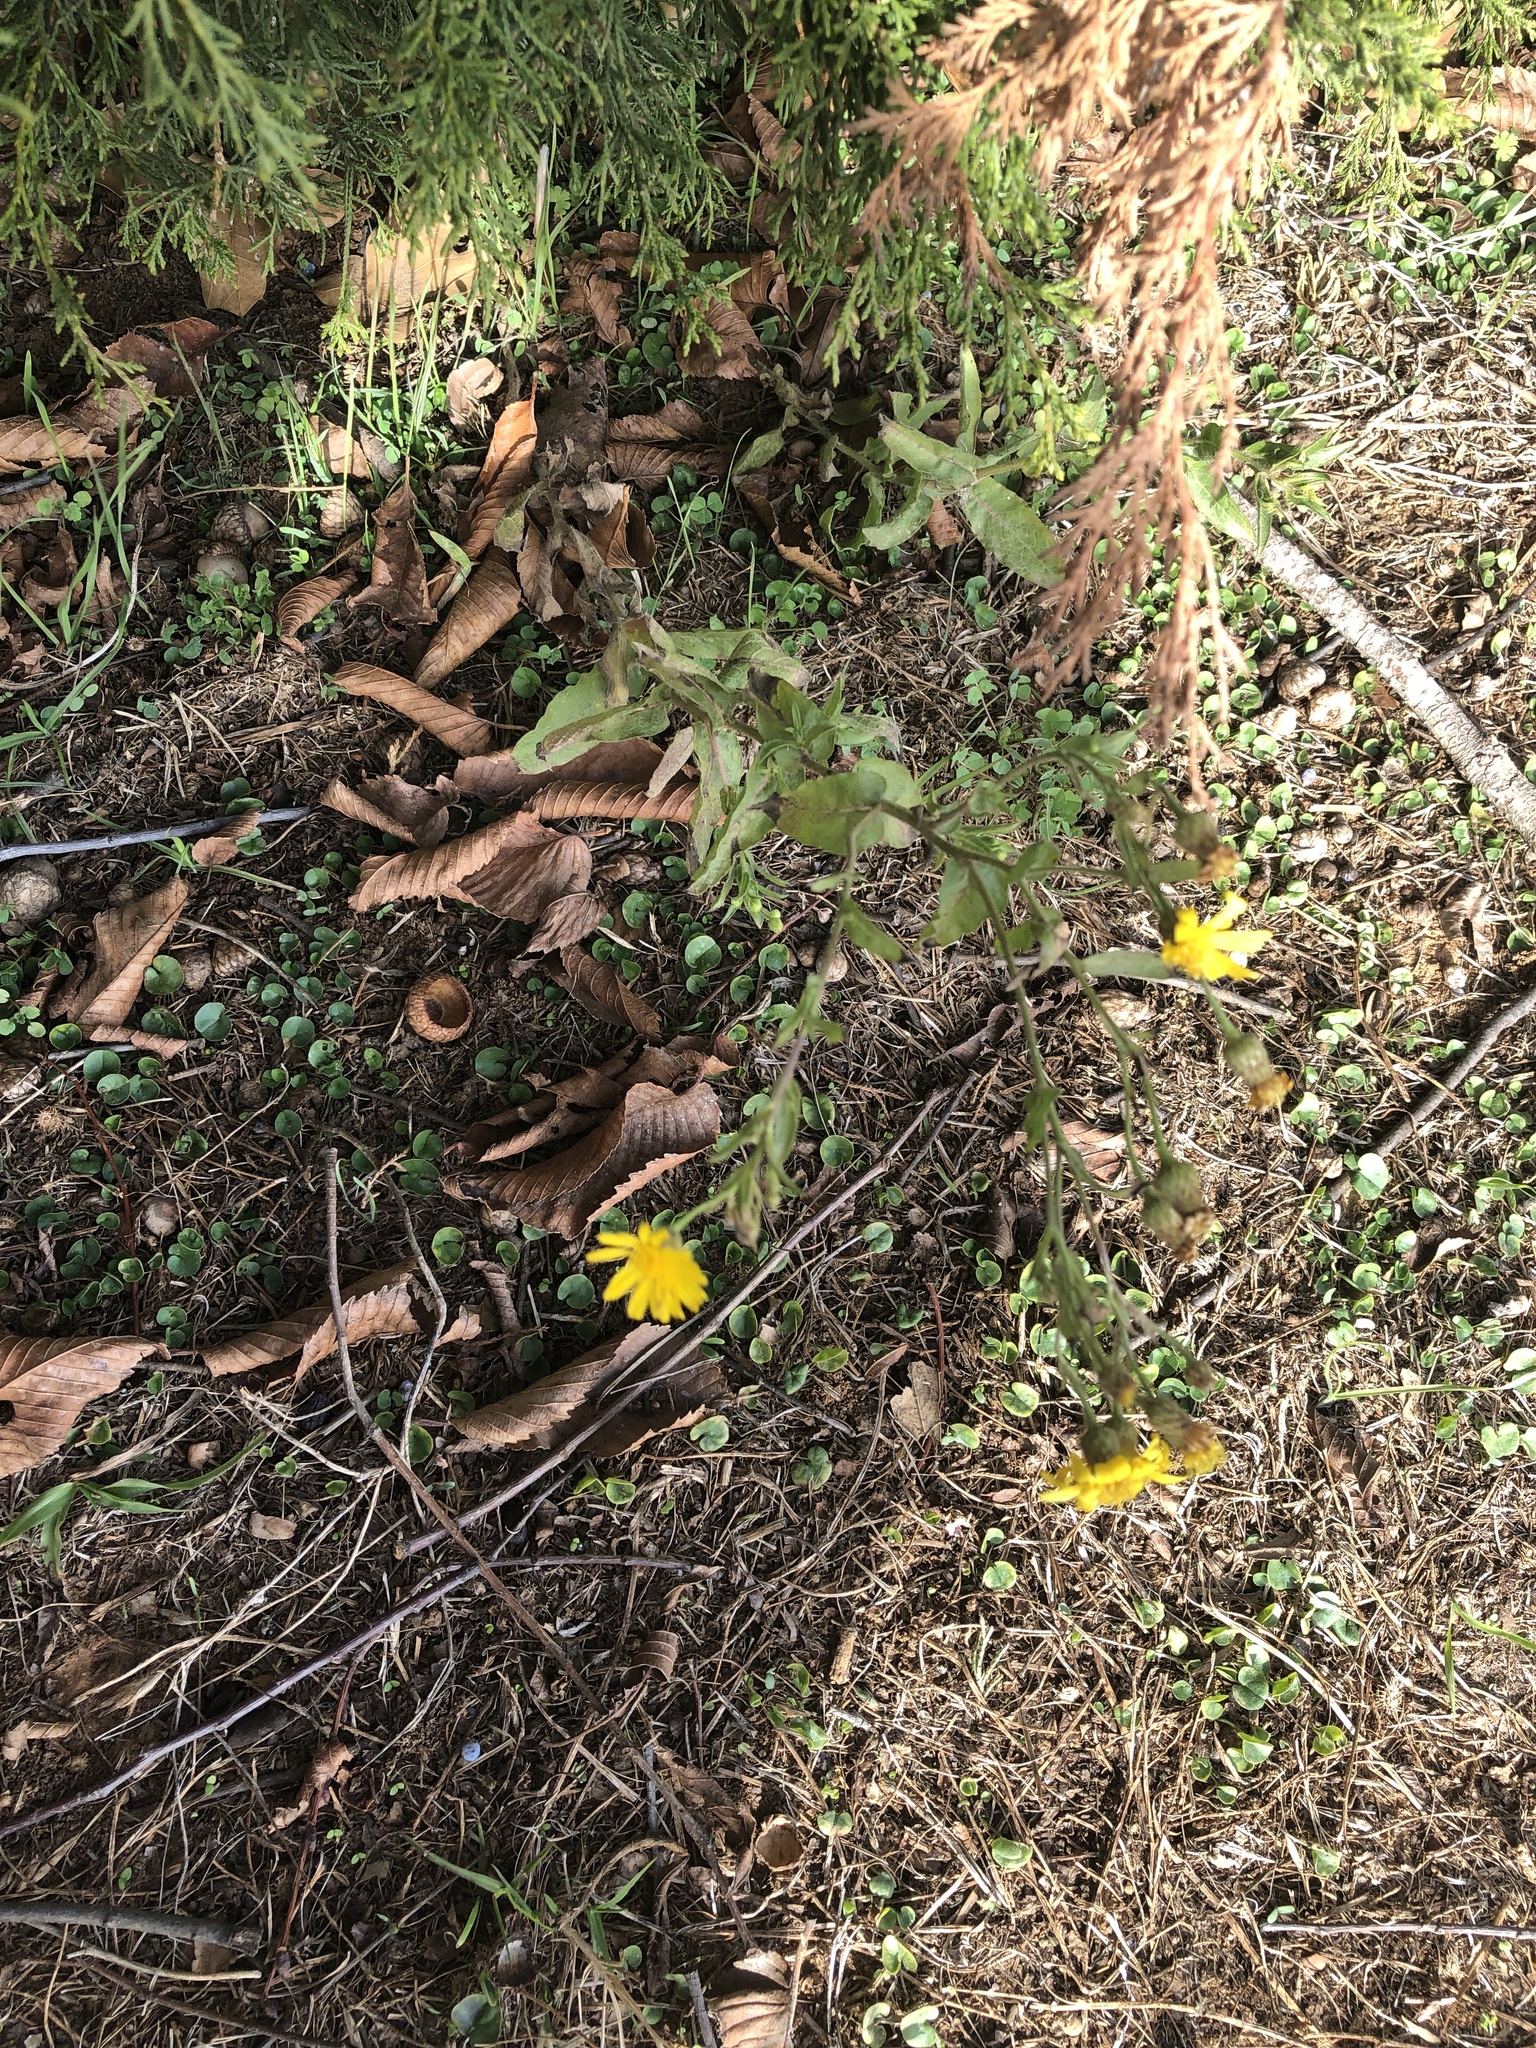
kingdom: Plantae
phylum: Tracheophyta
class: Magnoliopsida
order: Asterales
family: Asteraceae
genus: Heterotheca
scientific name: Heterotheca subaxillaris
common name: Camphorweed
